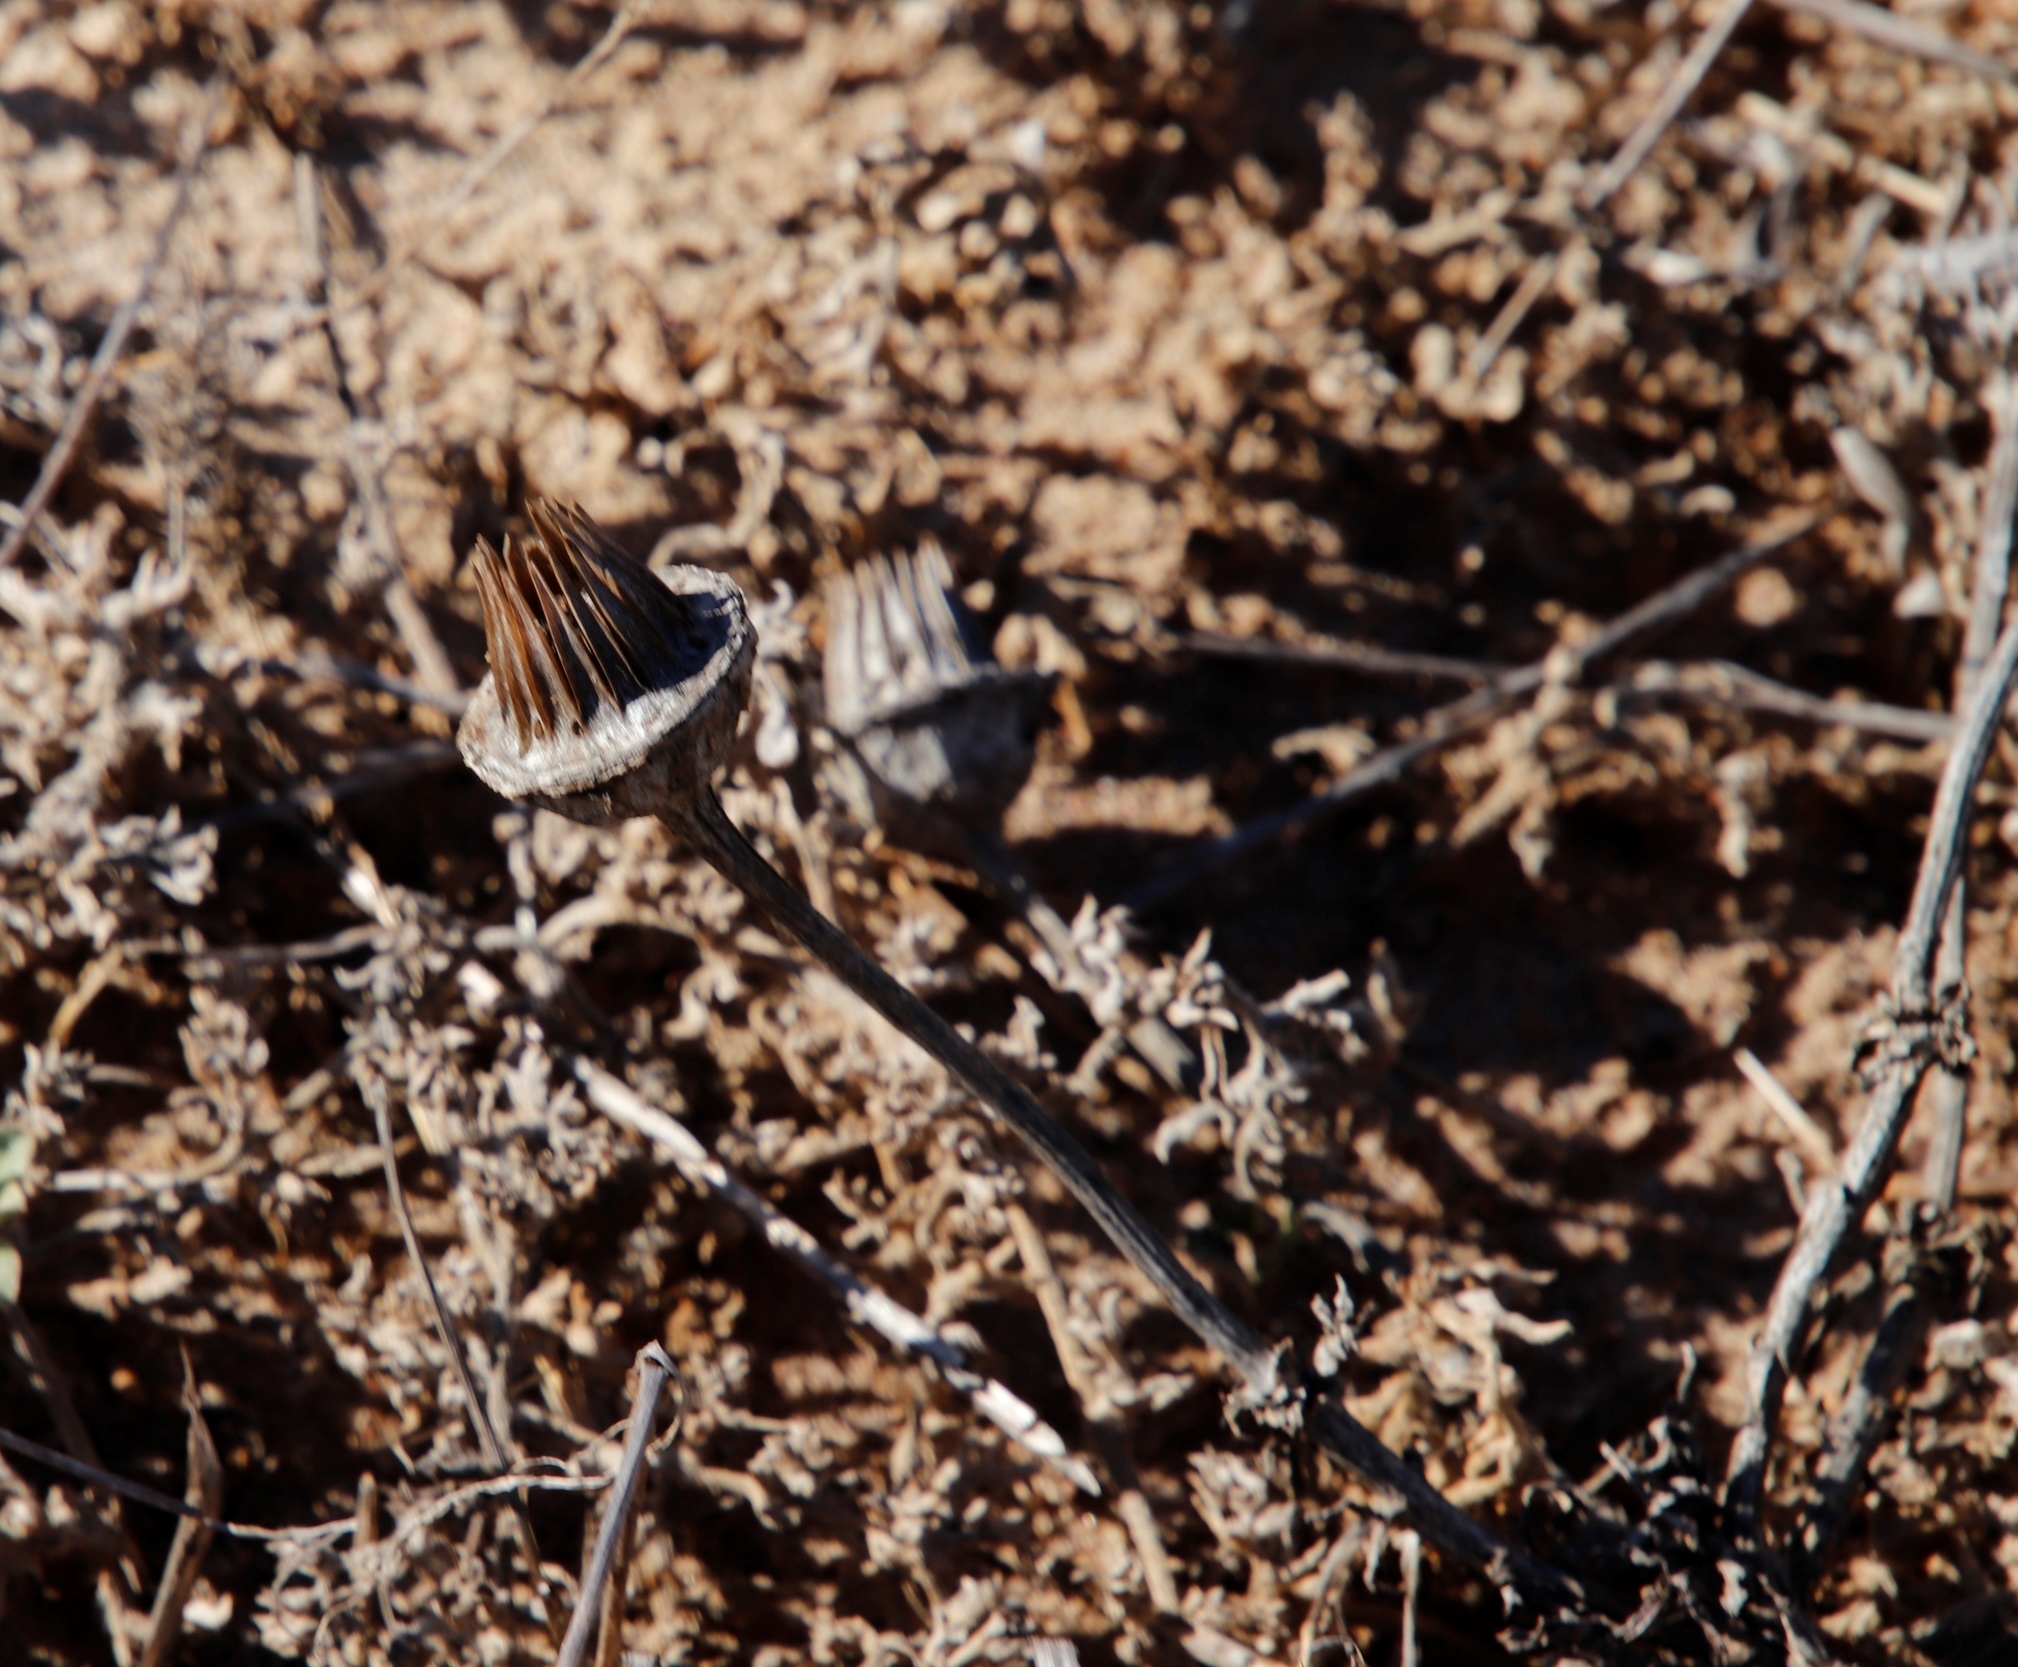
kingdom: Plantae
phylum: Tracheophyta
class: Magnoliopsida
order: Caryophyllales
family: Aizoaceae
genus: Conicosia
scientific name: Conicosia pugioniformis
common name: Narrow-leaved iceplant
